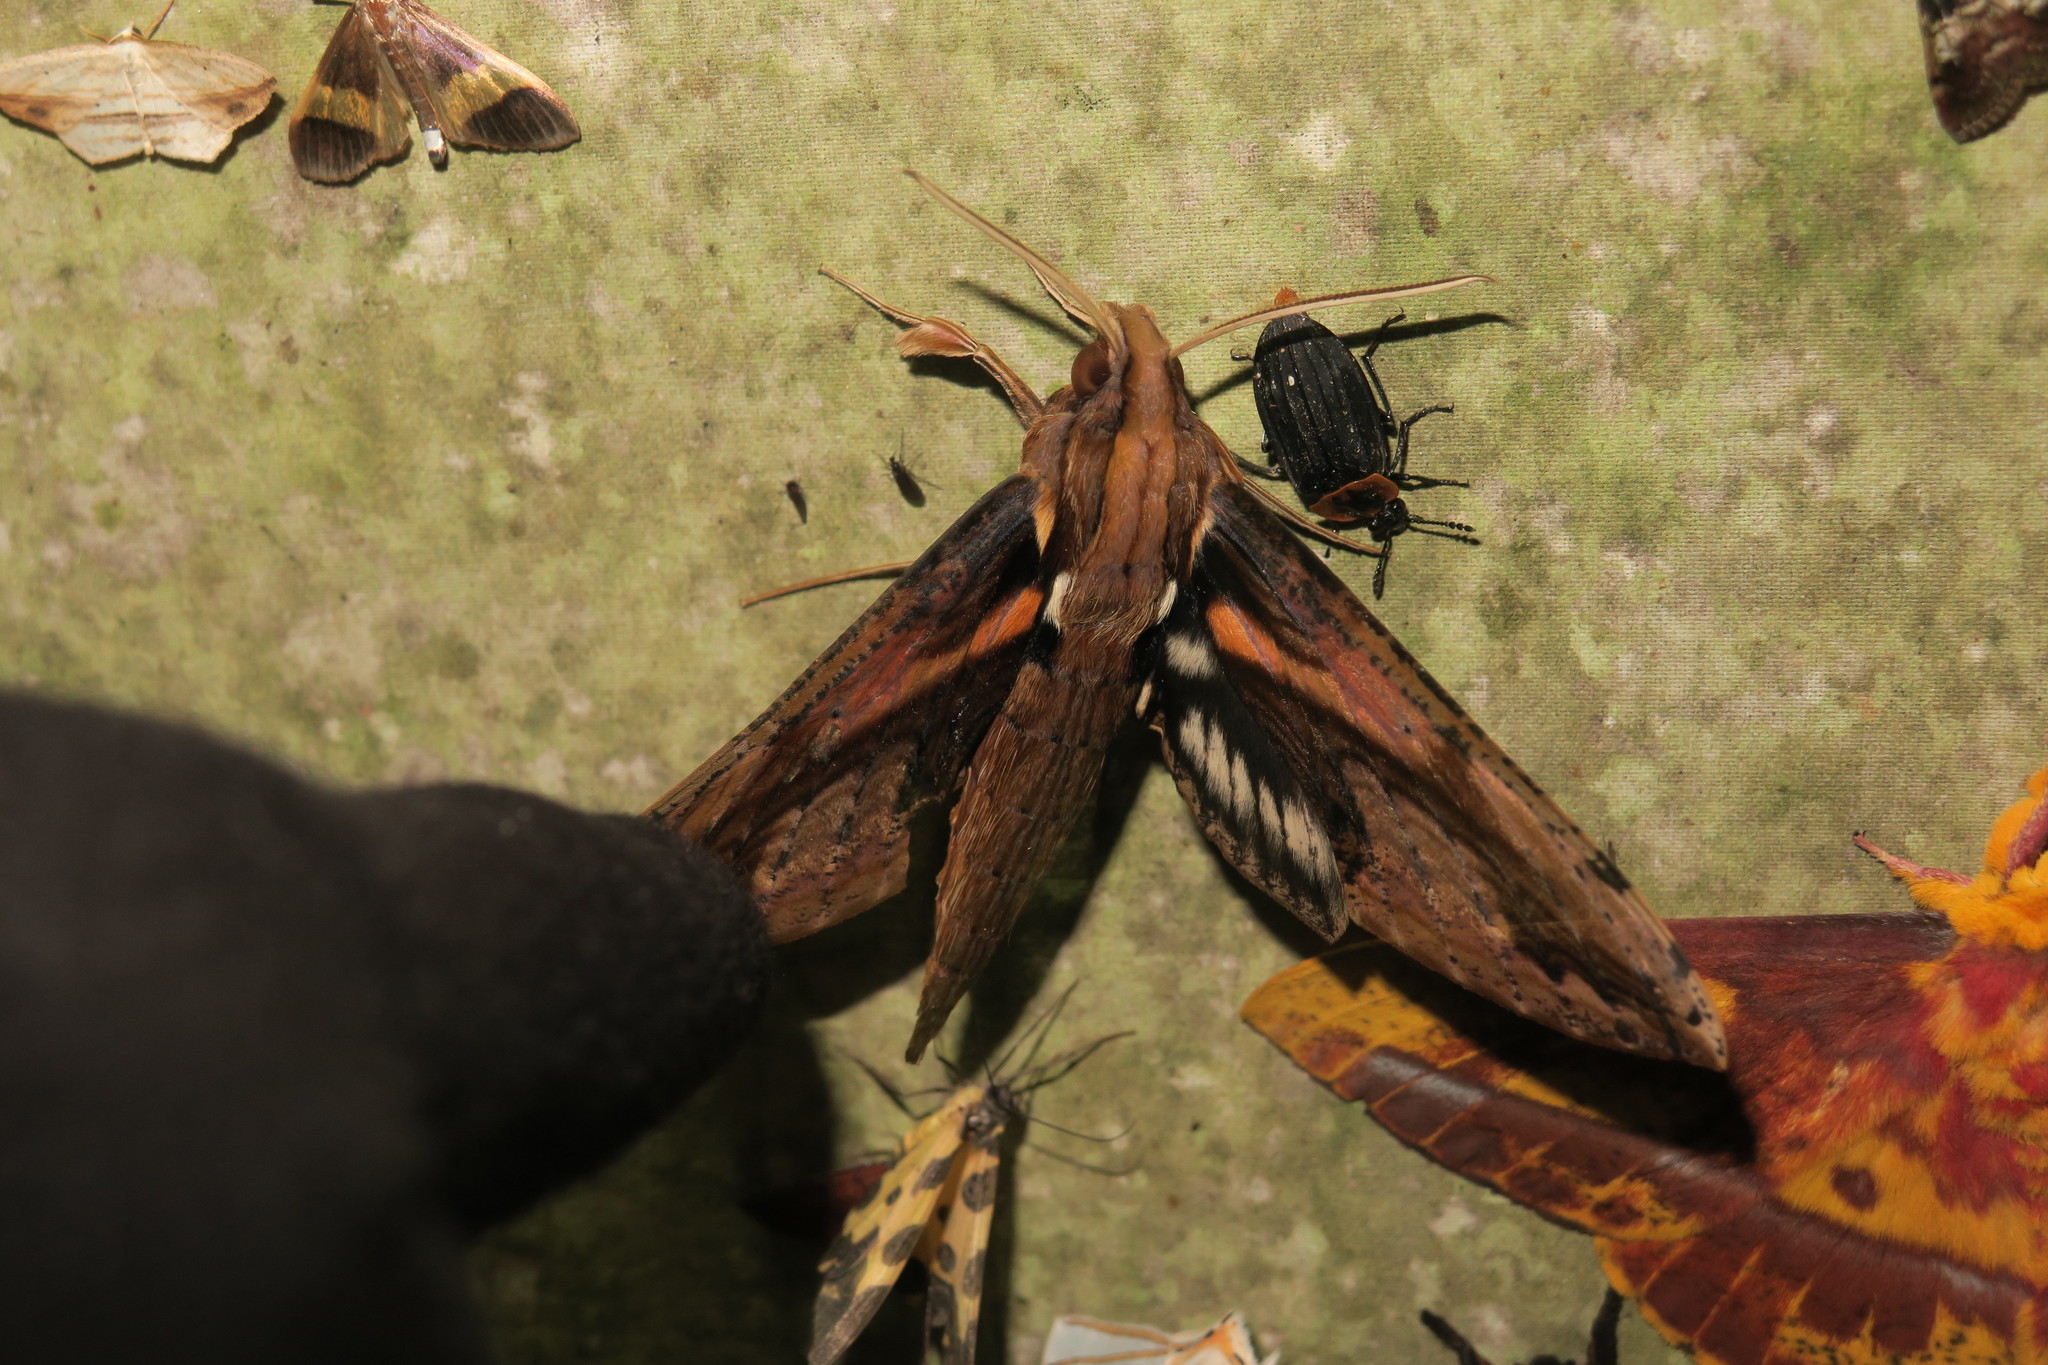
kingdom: Animalia
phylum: Arthropoda
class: Insecta
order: Lepidoptera
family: Sphingidae
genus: Xylophanes
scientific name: Xylophanes ceratomioides
